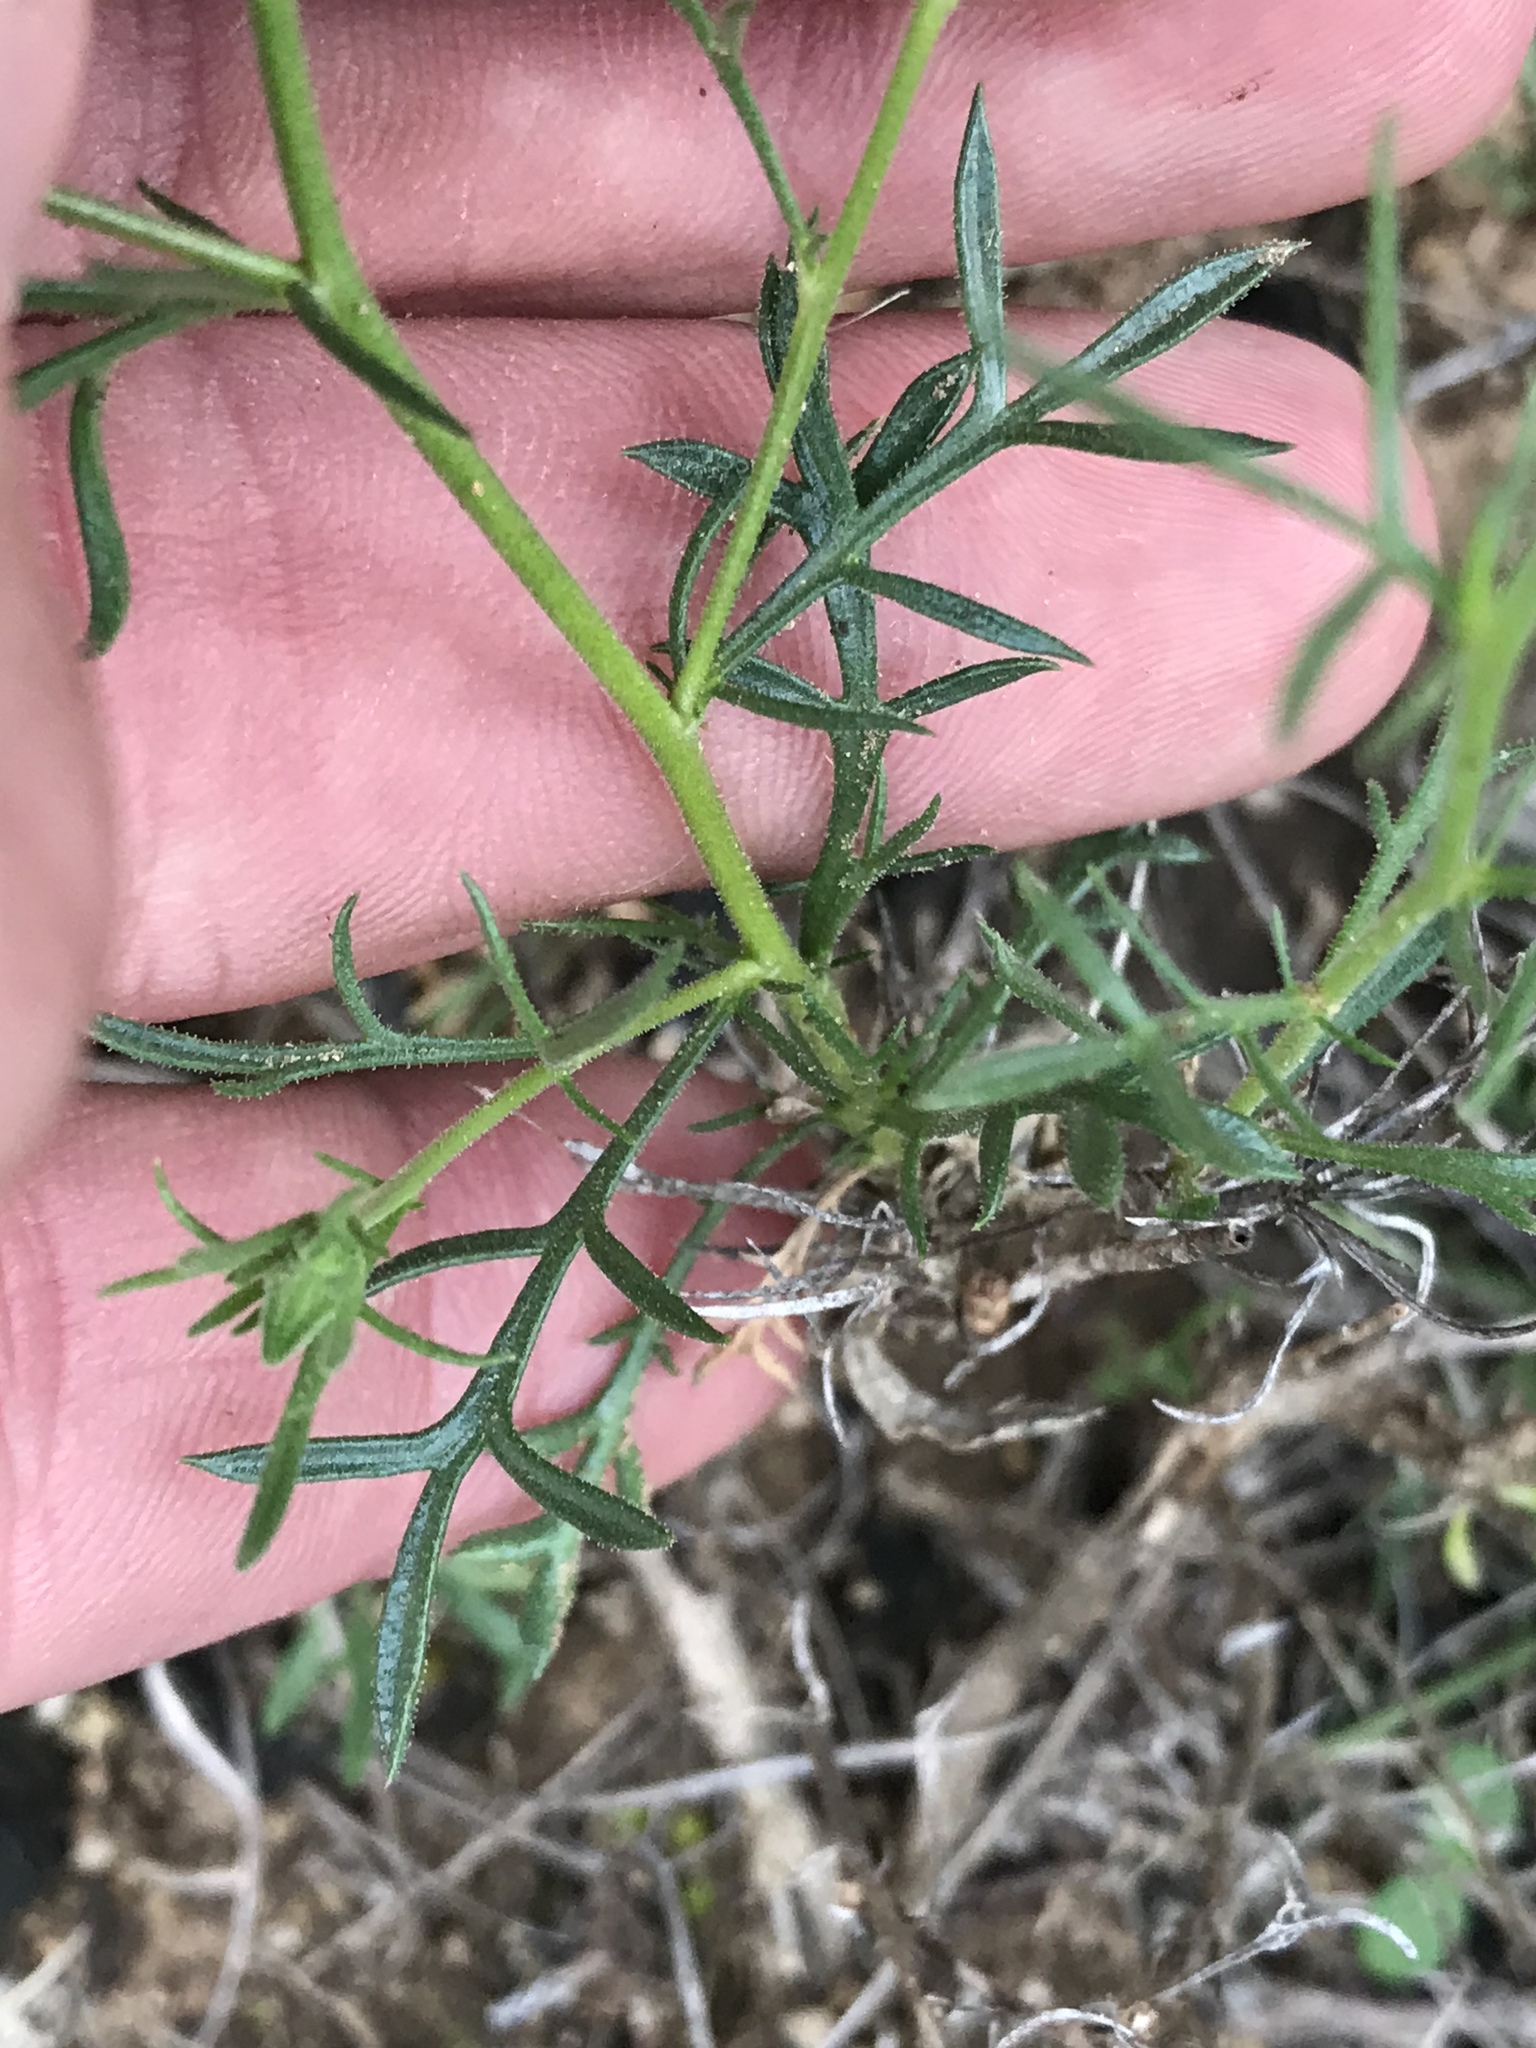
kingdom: Plantae
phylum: Tracheophyta
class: Magnoliopsida
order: Ericales
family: Polemoniaceae
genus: Giliastrum
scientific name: Giliastrum rigidulum
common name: Bluebowls
